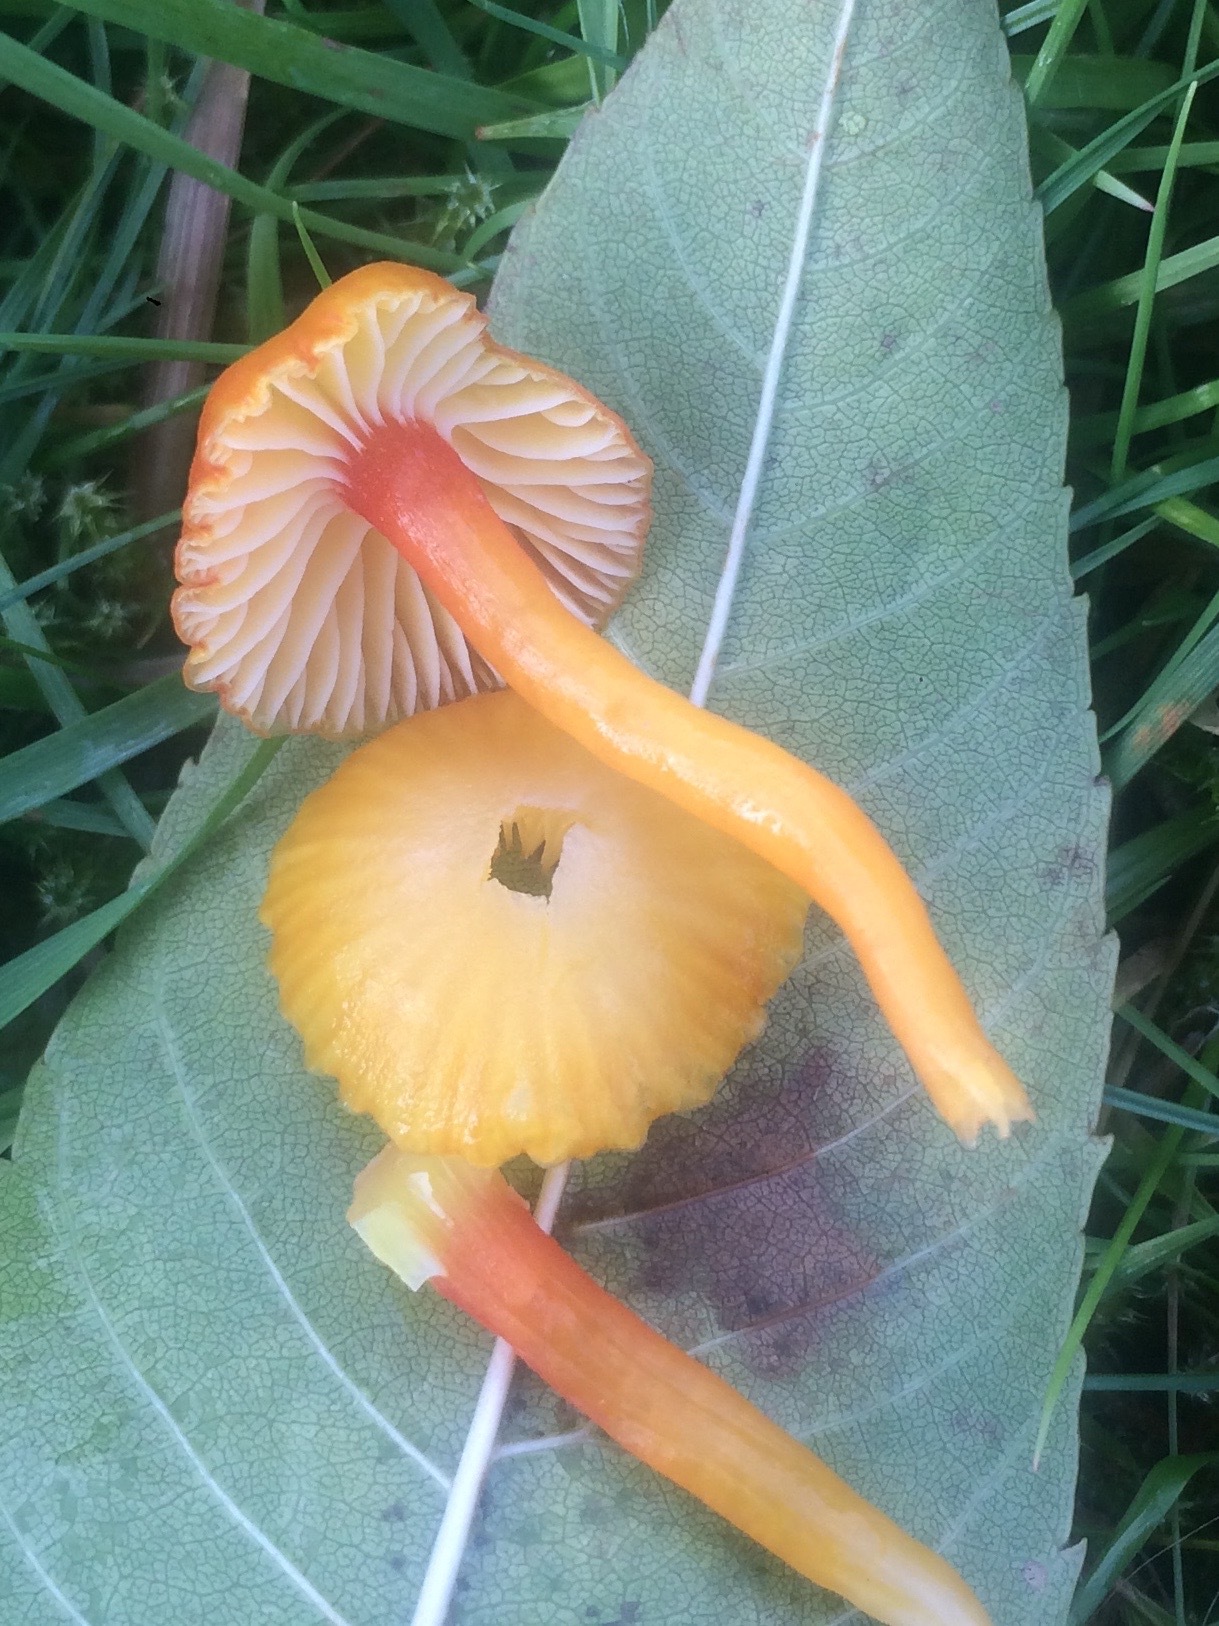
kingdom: Fungi
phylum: Basidiomycota
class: Agaricomycetes
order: Agaricales
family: Hygrophoraceae
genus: Hygrocybe
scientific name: Hygrocybe insipida
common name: Spangle waxcap
